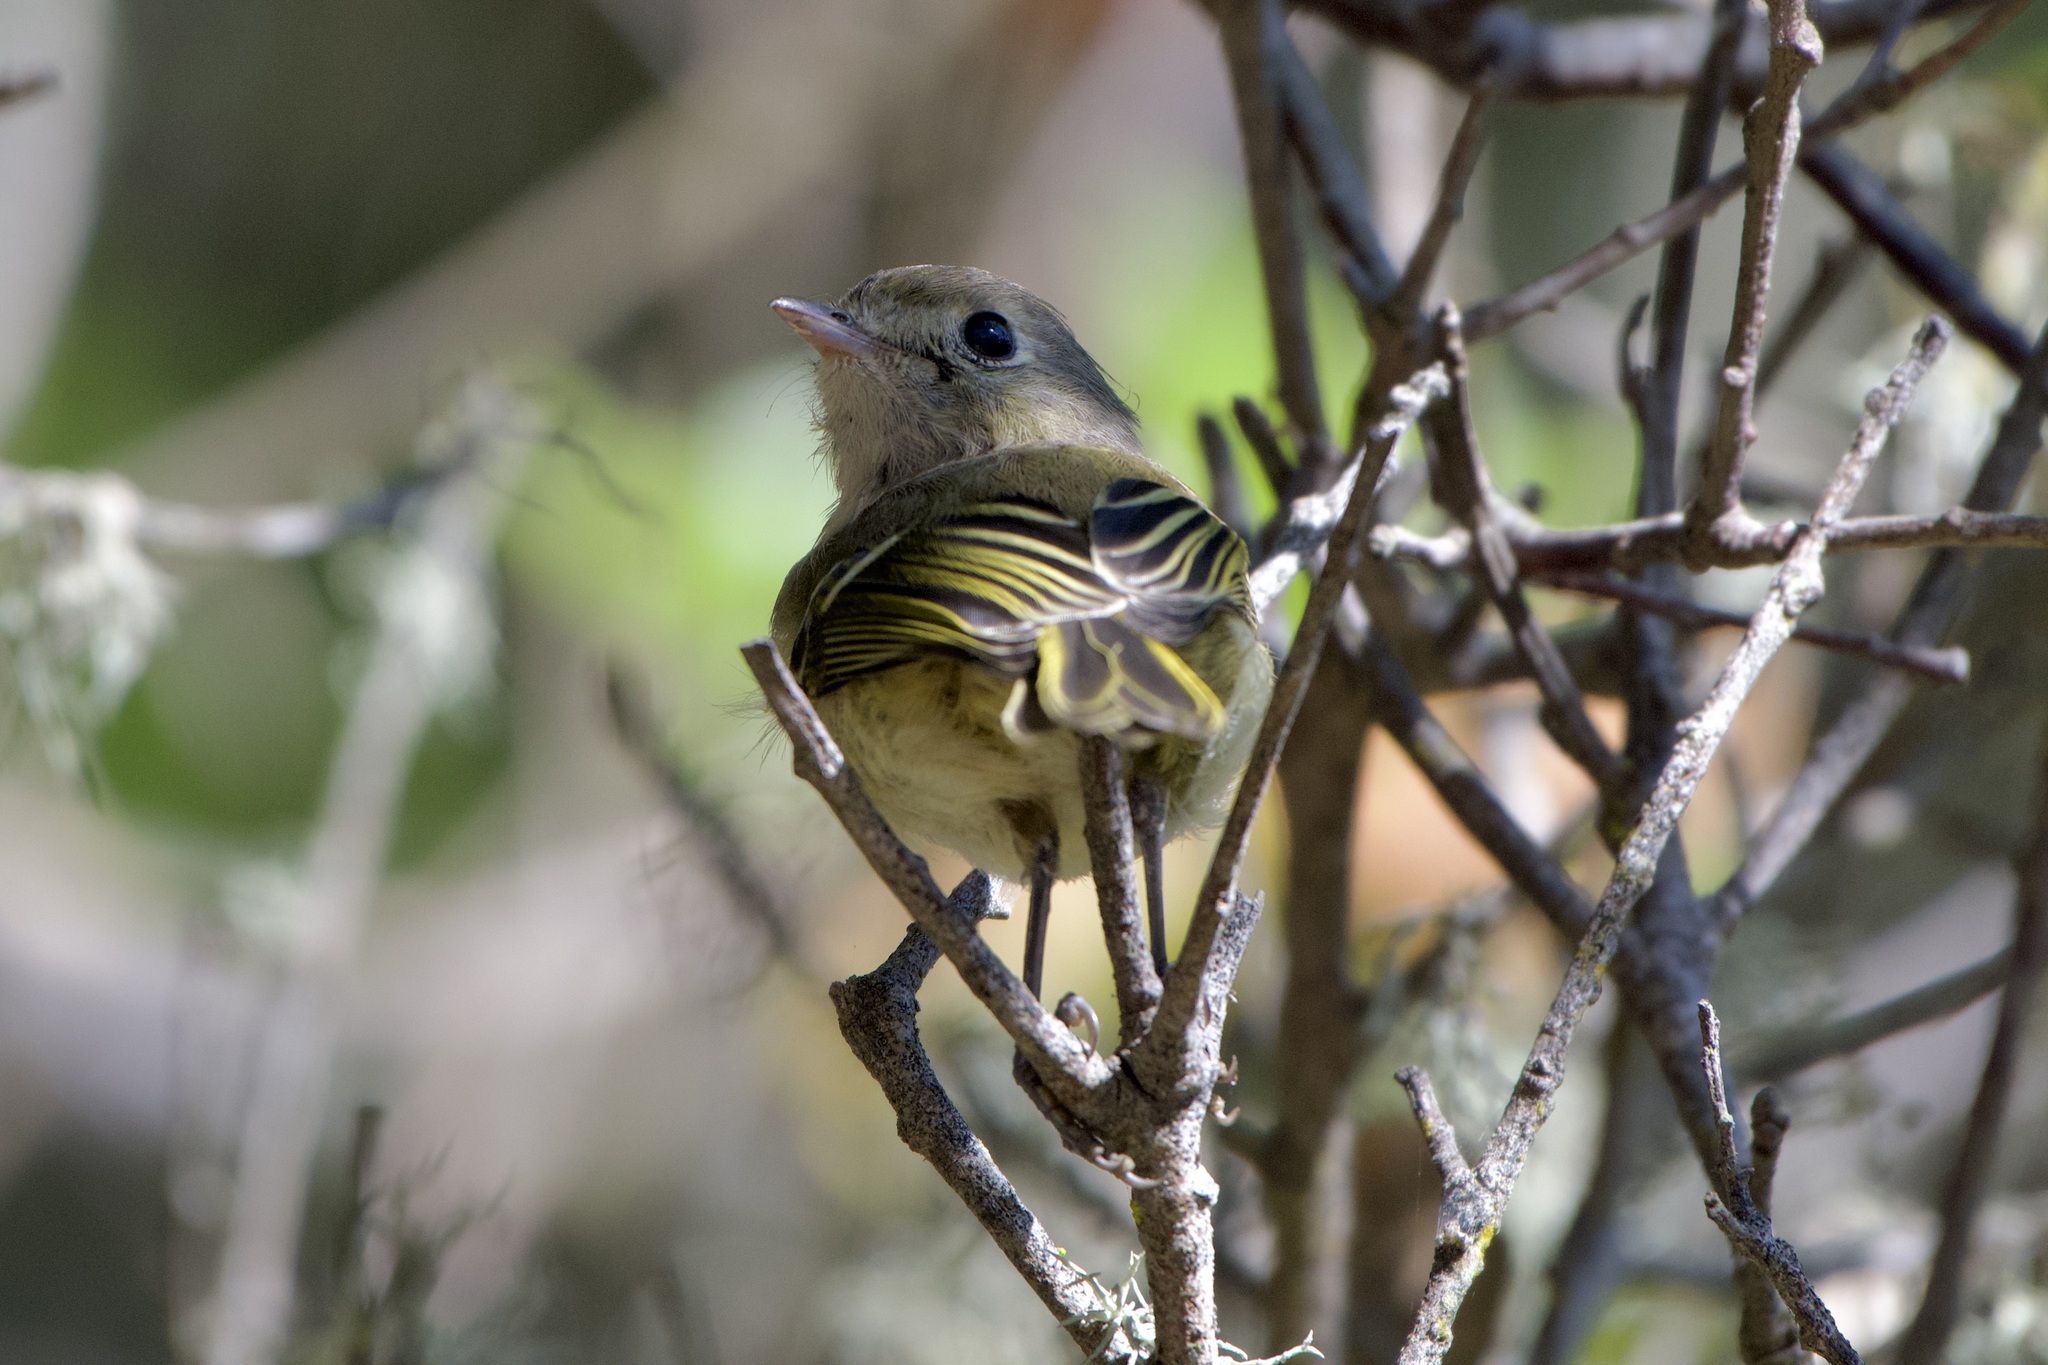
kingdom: Animalia
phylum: Chordata
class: Aves
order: Passeriformes
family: Vireonidae
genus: Vireo
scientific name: Vireo huttoni
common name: Hutton's vireo
